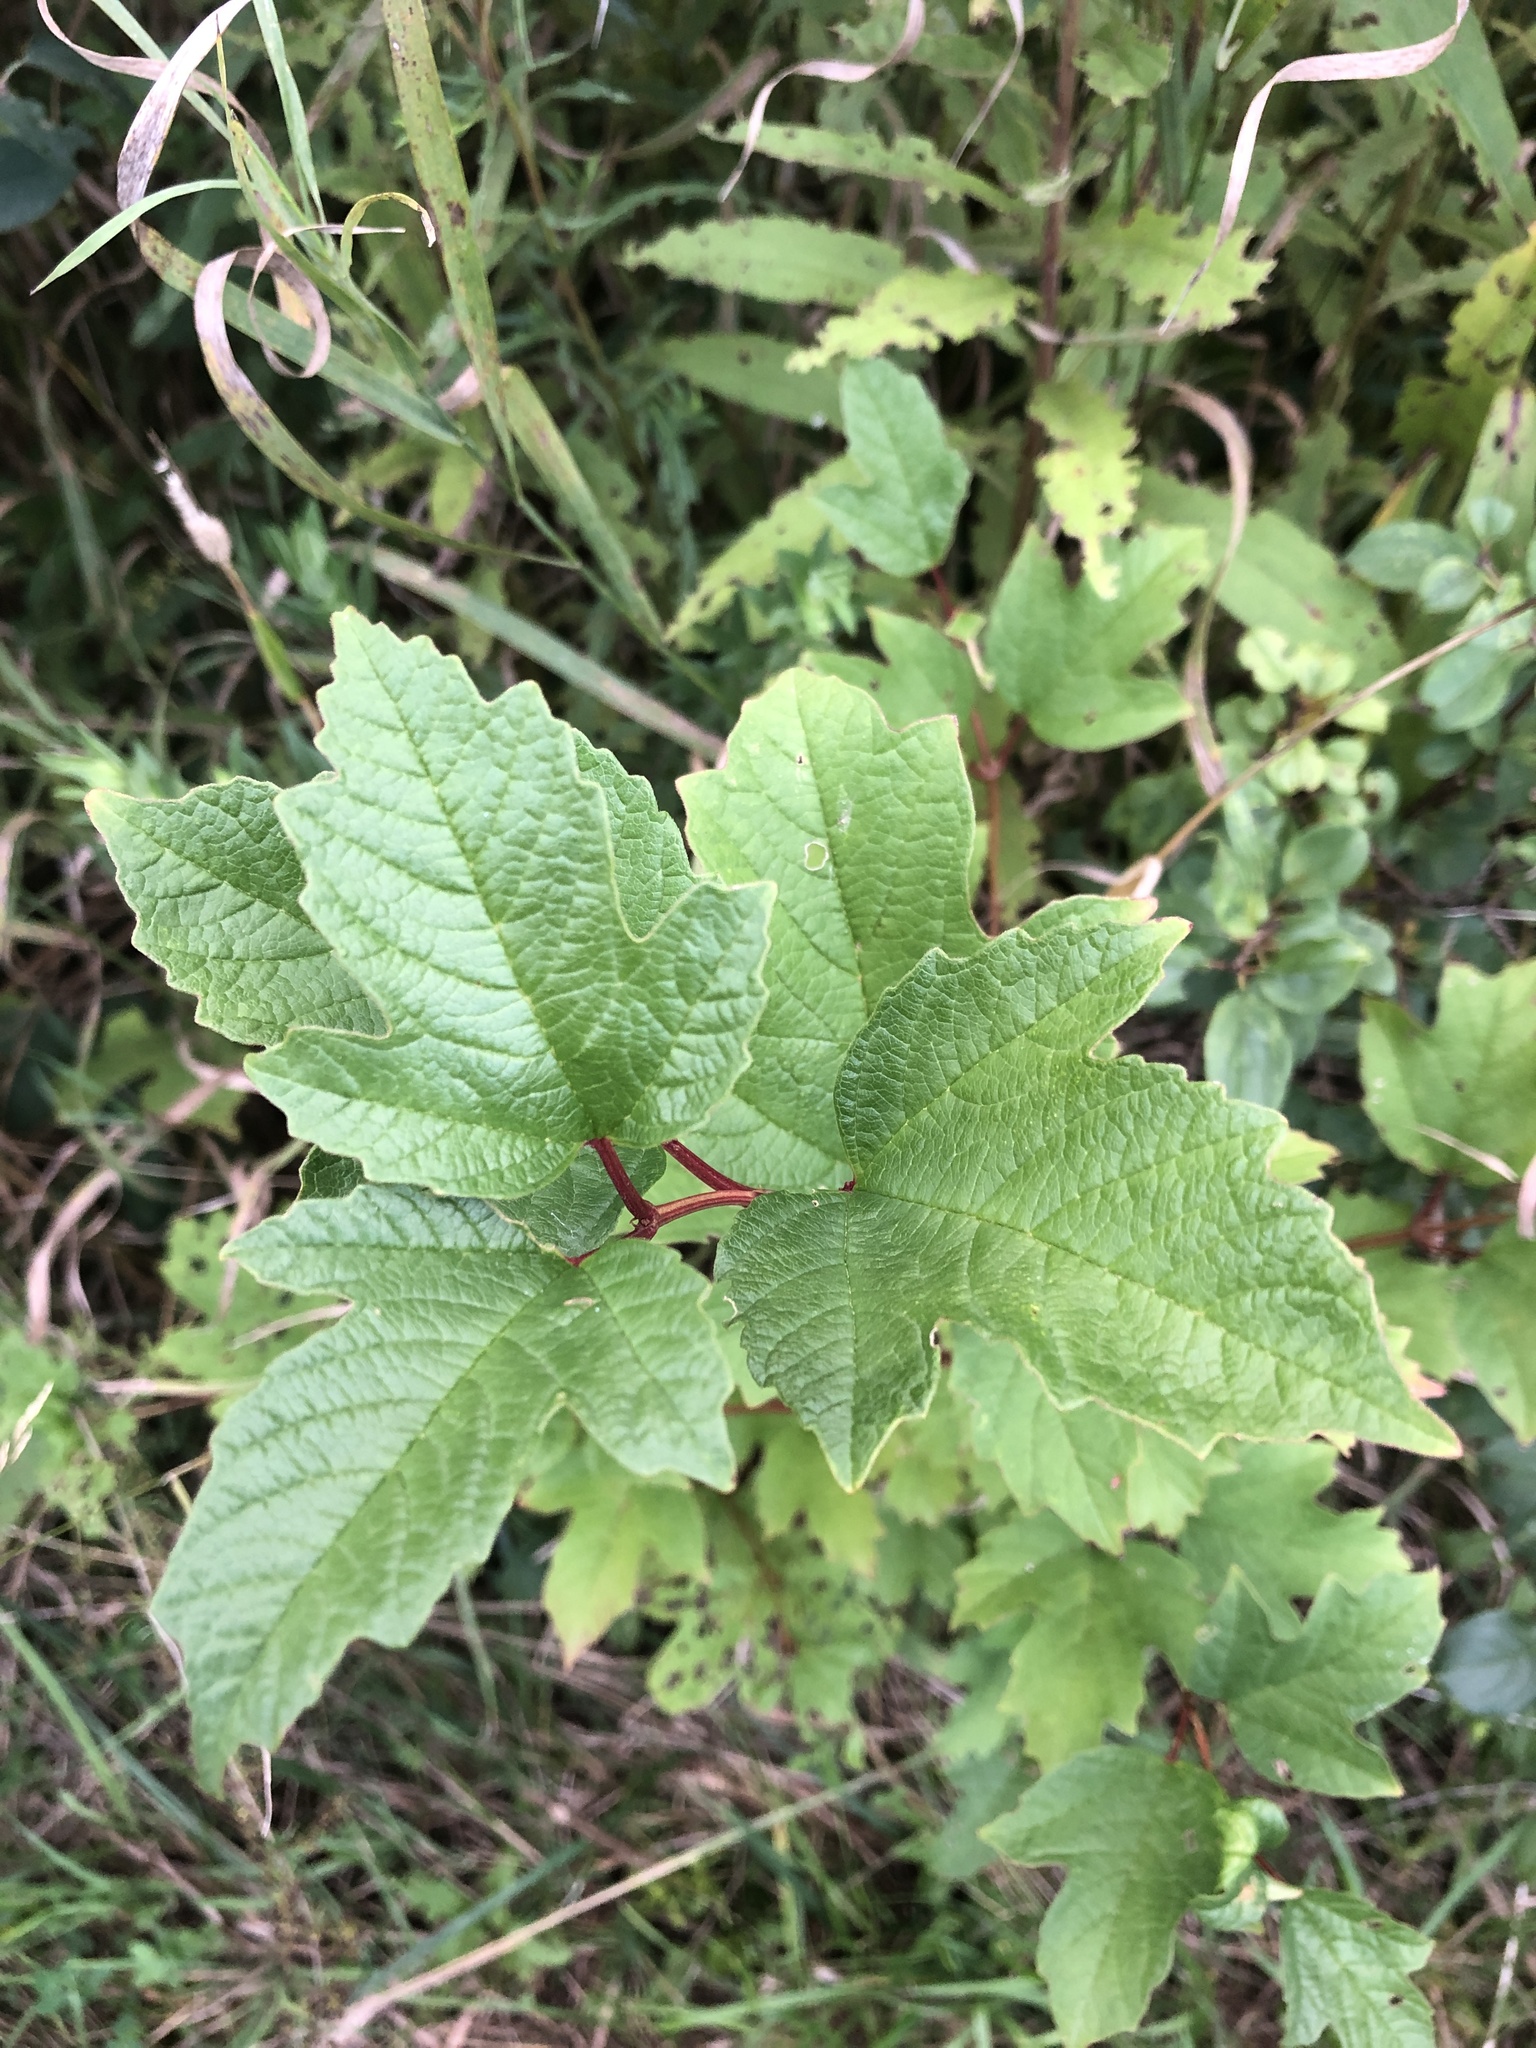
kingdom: Plantae
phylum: Tracheophyta
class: Magnoliopsida
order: Dipsacales
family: Viburnaceae
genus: Viburnum
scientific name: Viburnum opulus
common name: Guelder-rose
